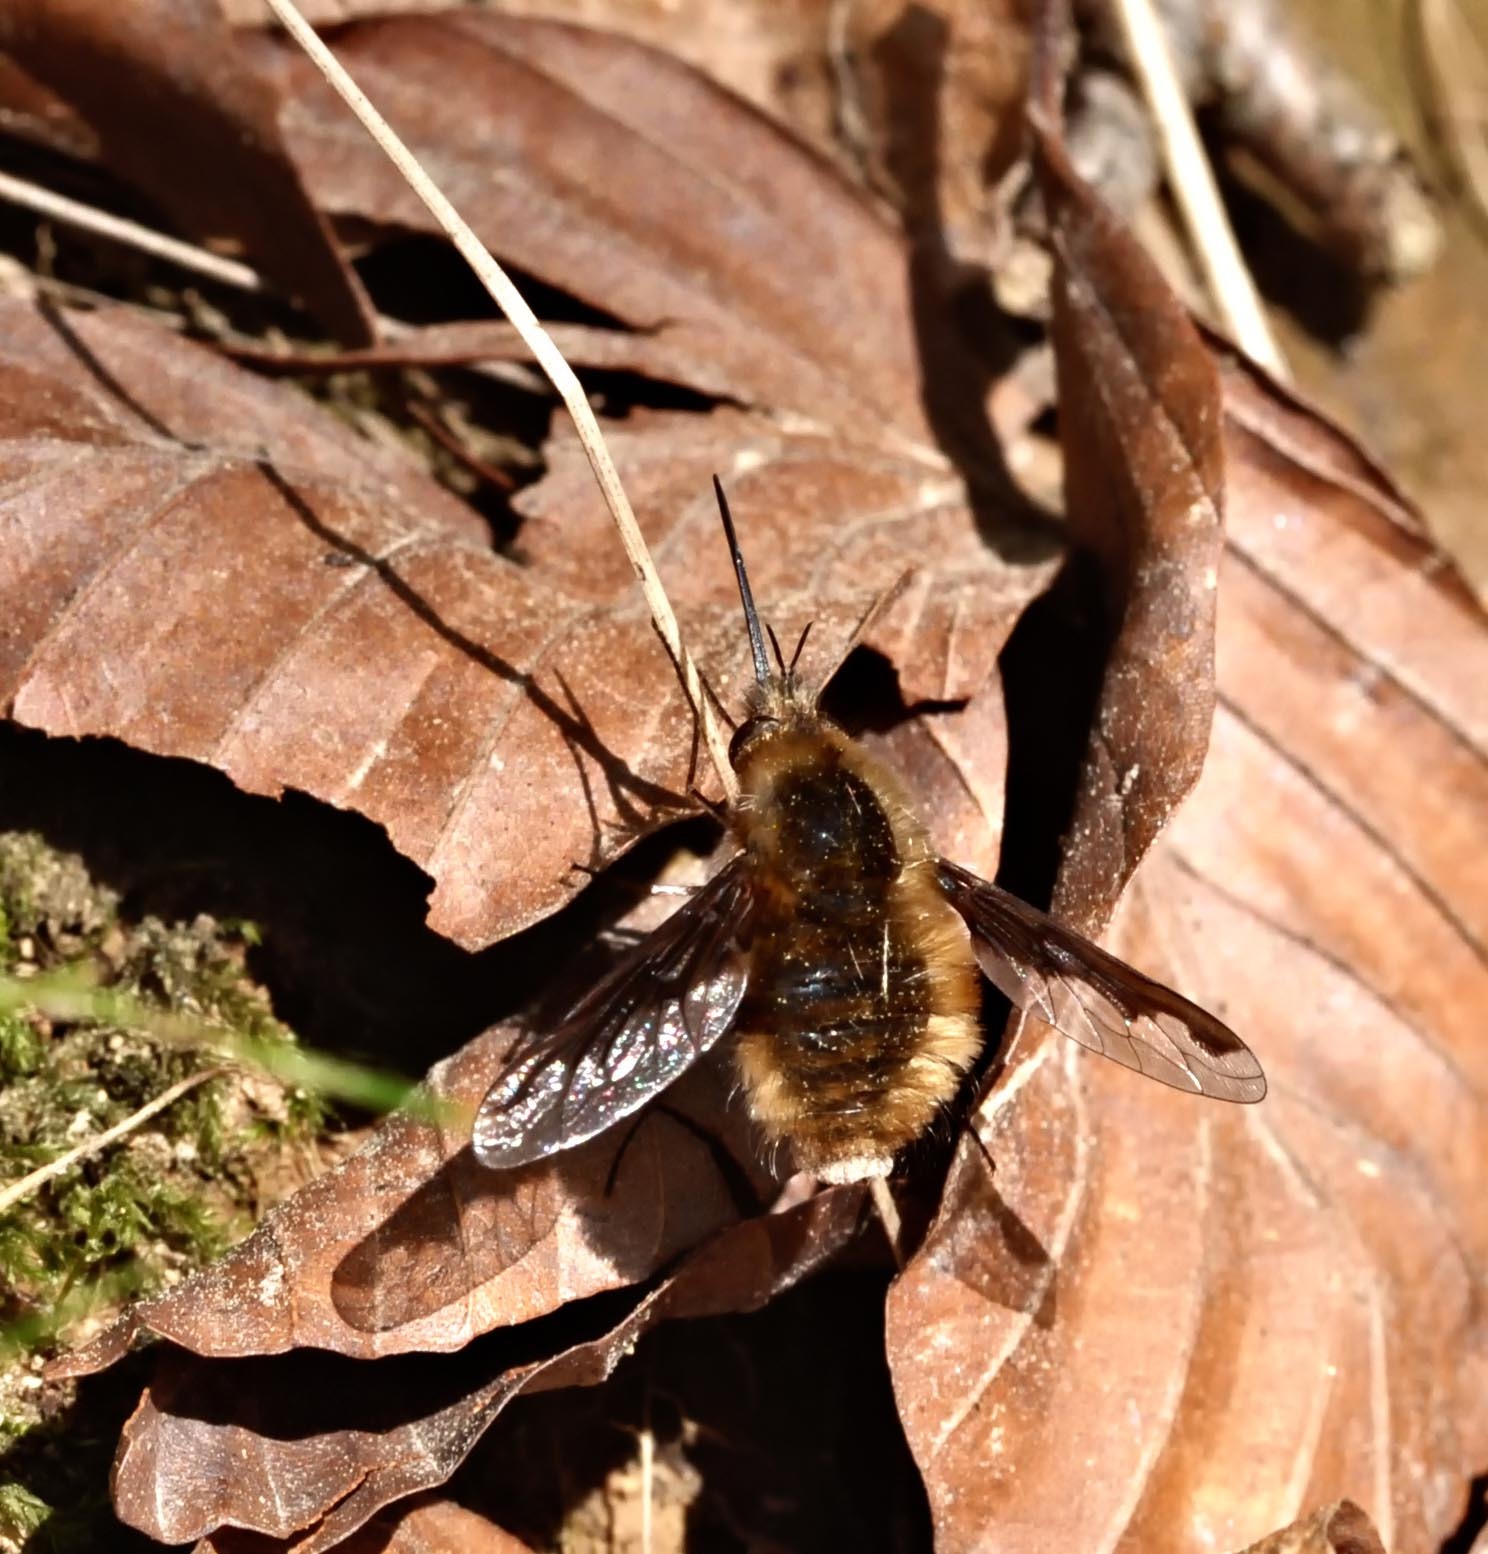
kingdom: Animalia
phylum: Arthropoda
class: Insecta
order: Diptera
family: Bombyliidae
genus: Bombylius
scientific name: Bombylius major
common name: Bee fly
